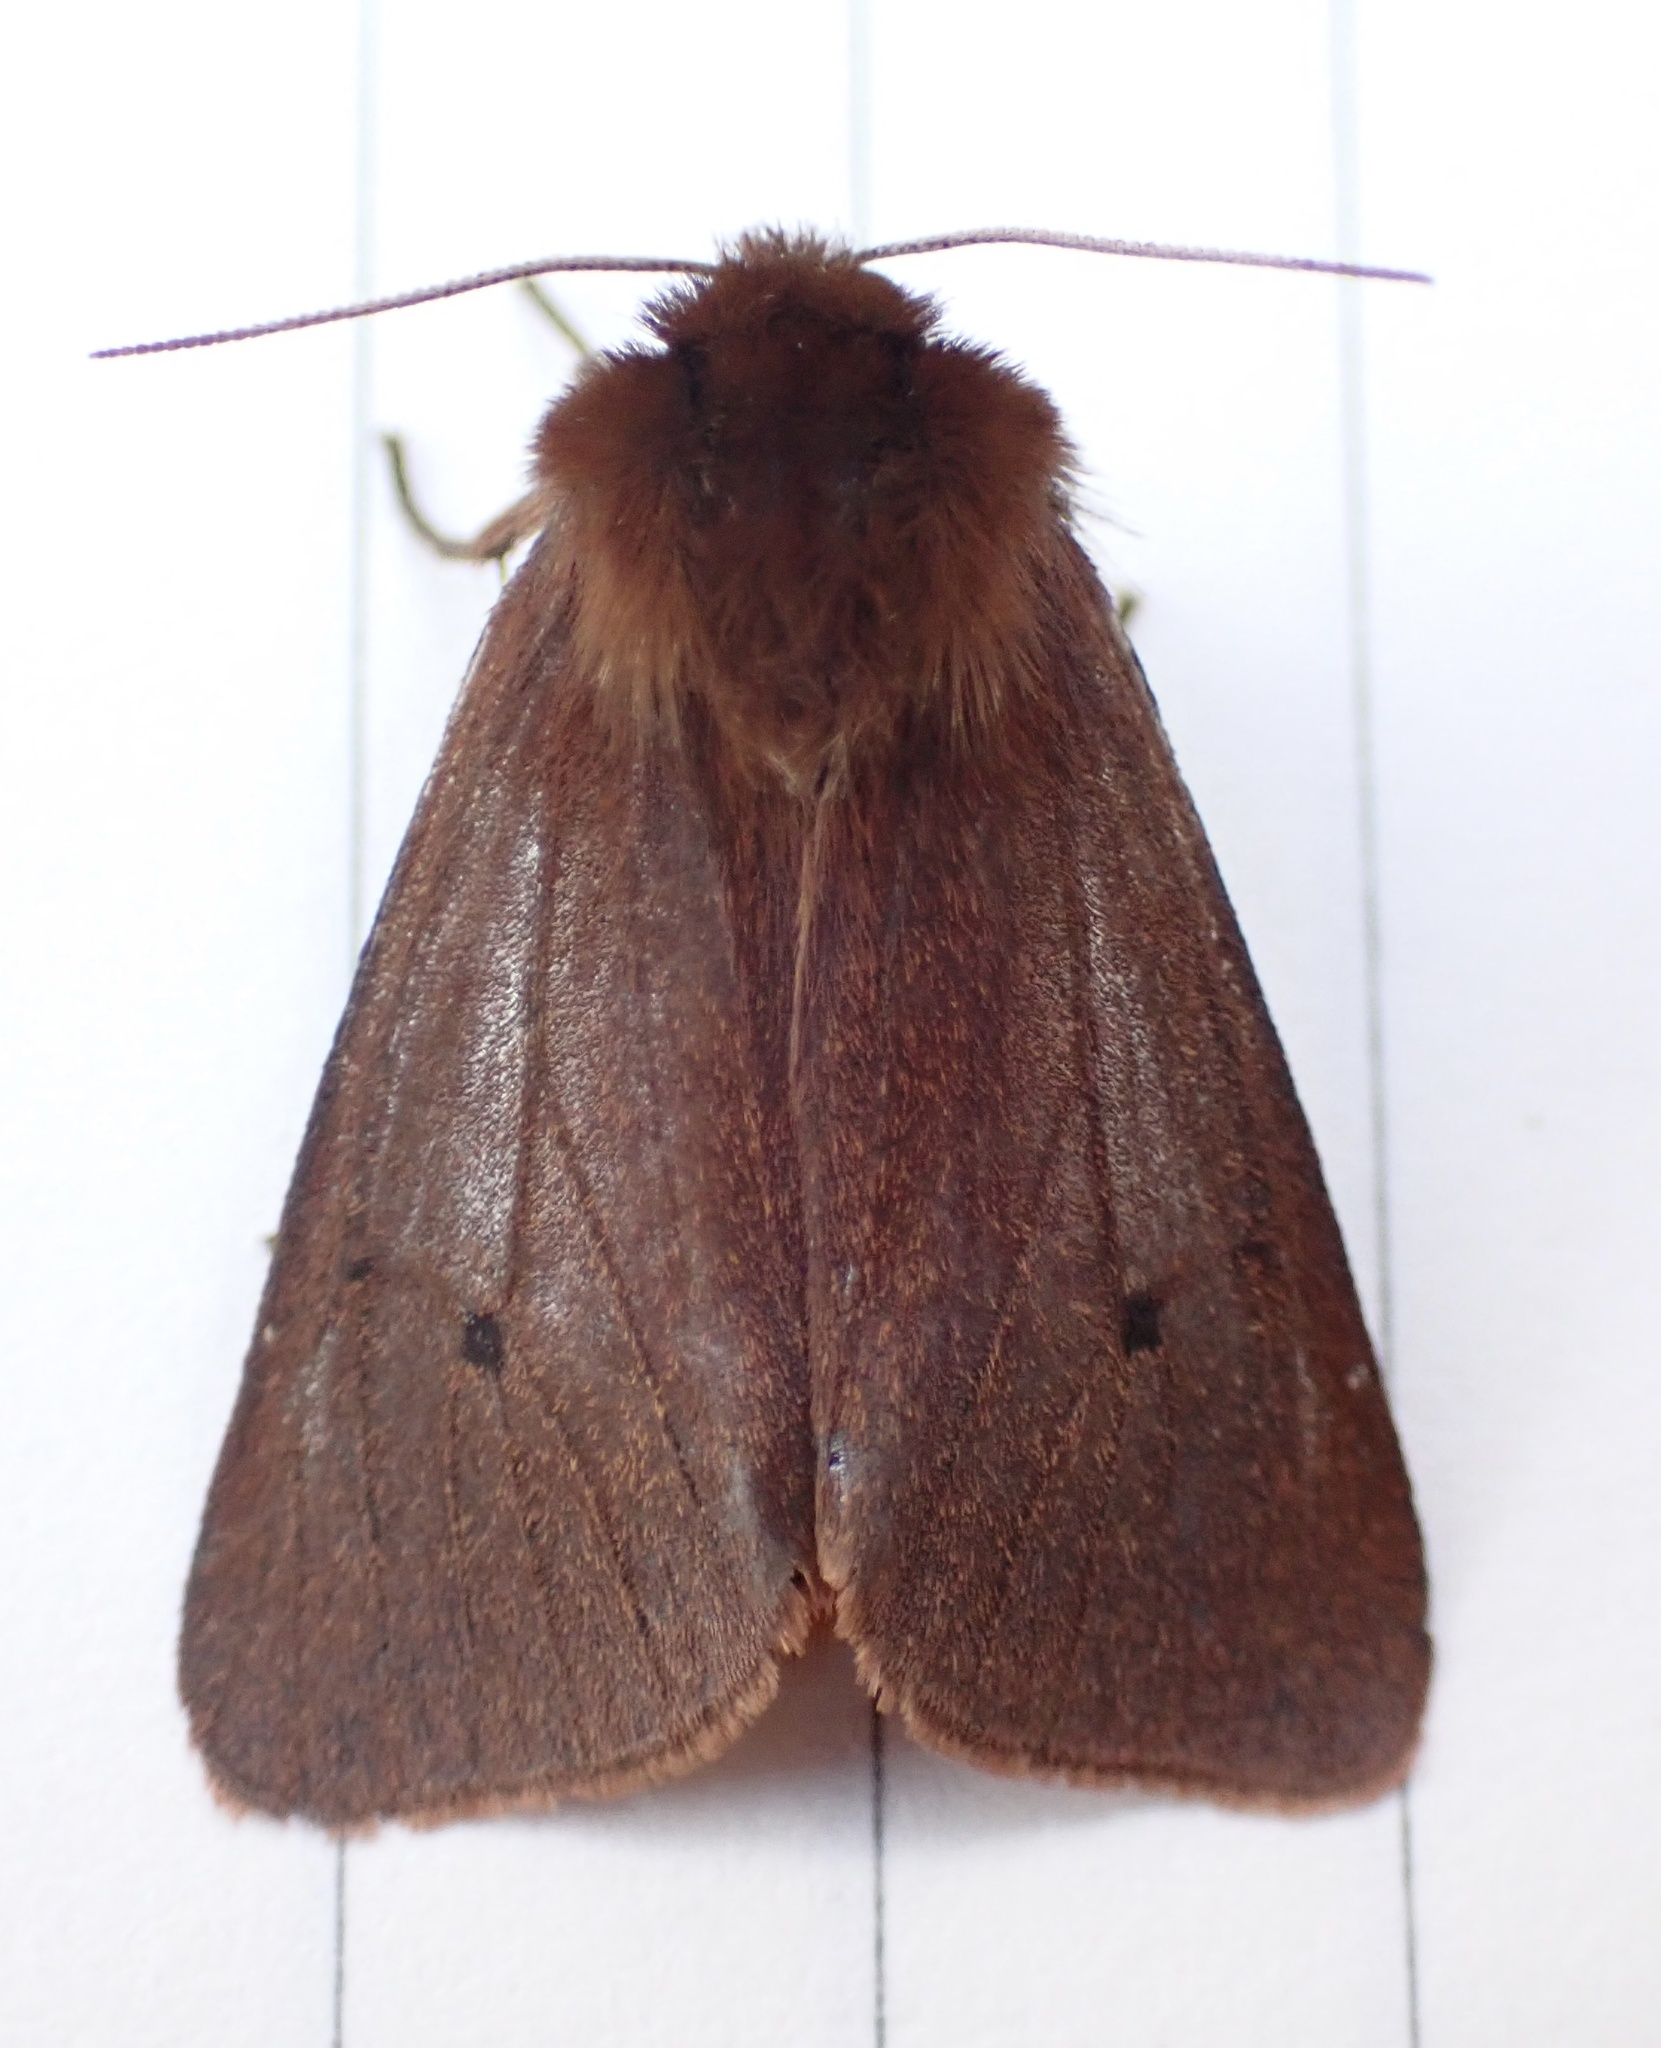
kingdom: Animalia
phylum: Arthropoda
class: Insecta
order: Lepidoptera
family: Erebidae
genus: Phragmatobia
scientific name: Phragmatobia fuliginosa
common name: Ruby tiger
